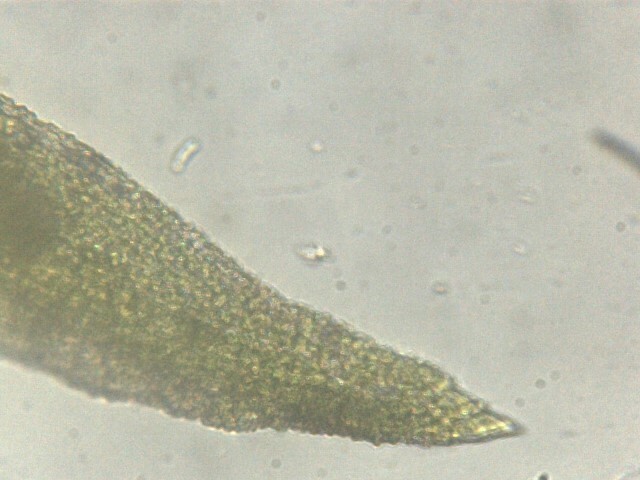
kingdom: Plantae
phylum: Bryophyta
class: Bryopsida
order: Pottiales
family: Pottiaceae
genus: Trichostomum
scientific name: Trichostomum brachydontium
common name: Variable crisp-moss
